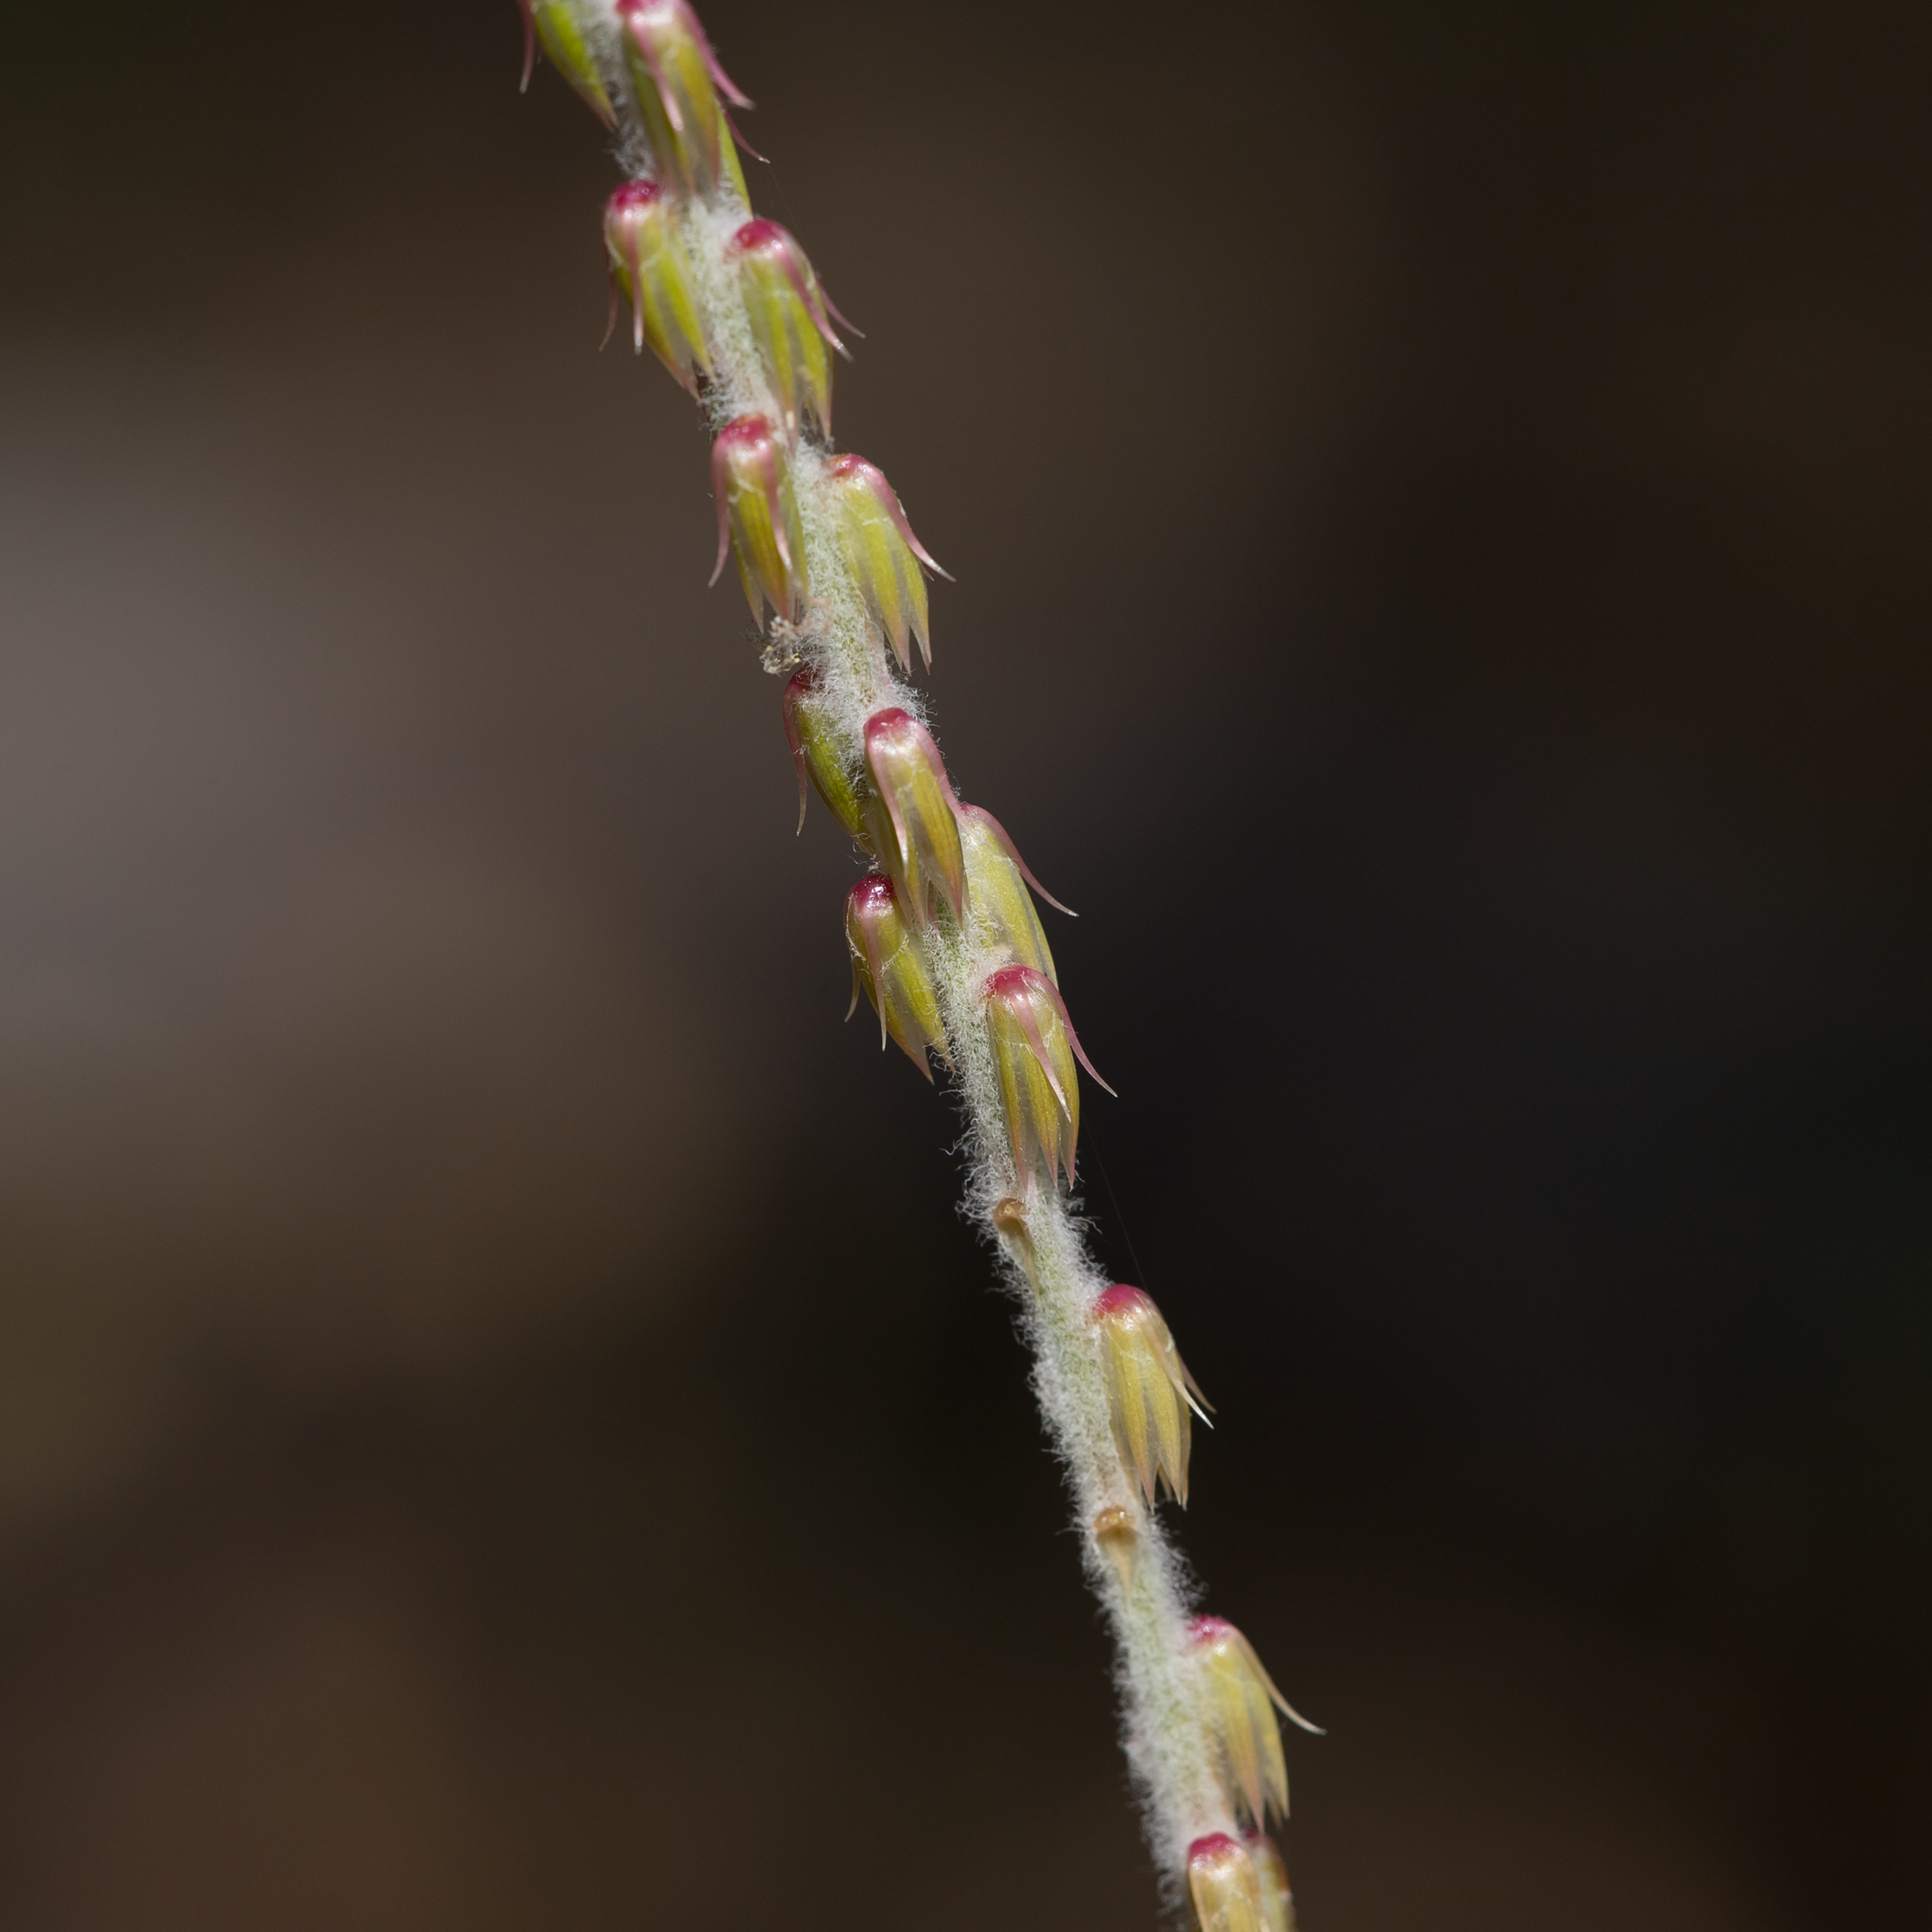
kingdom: Plantae
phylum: Tracheophyta
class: Magnoliopsida
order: Caryophyllales
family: Amaranthaceae
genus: Achyranthes
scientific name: Achyranthes aspera
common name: Devil's horsewhip
